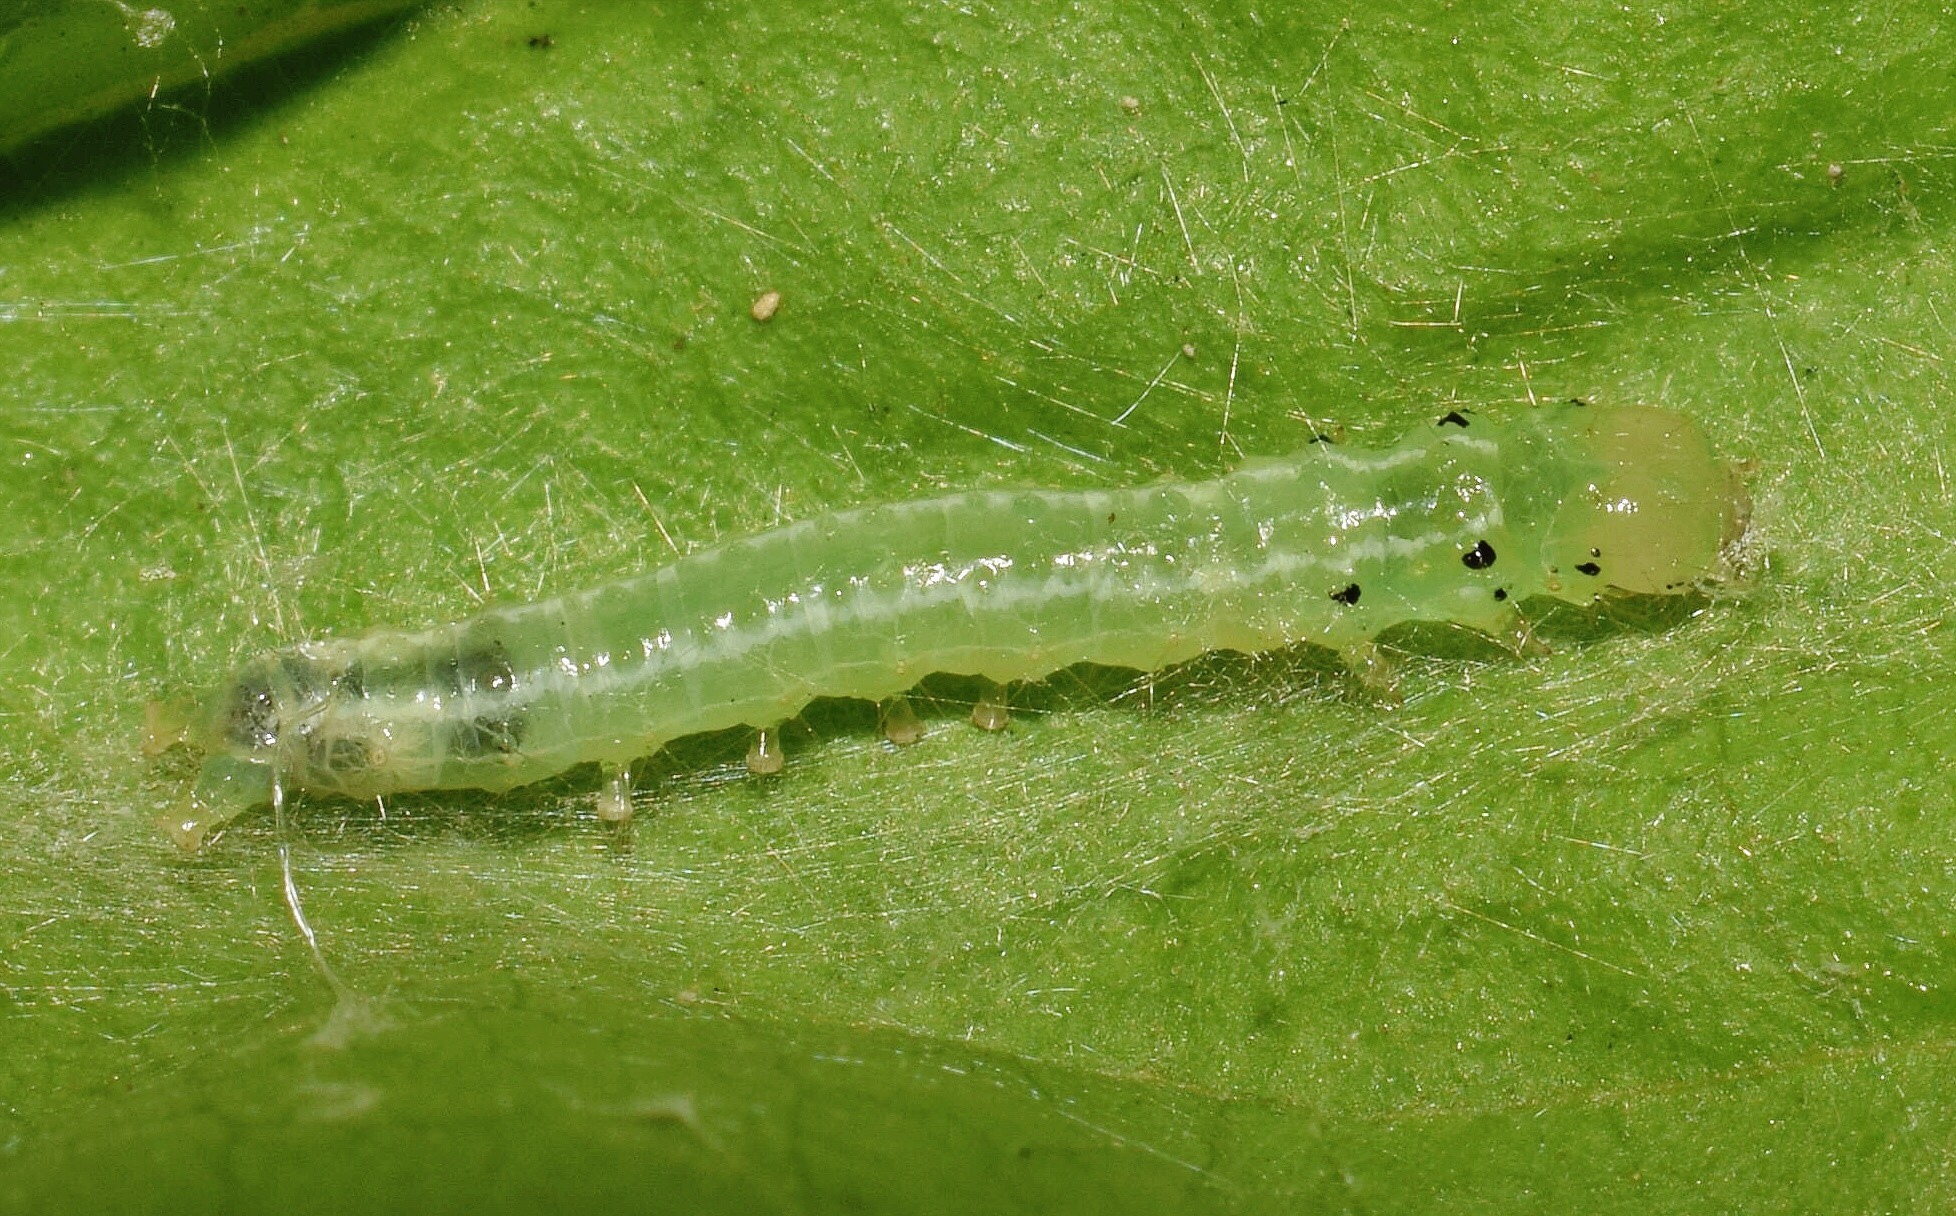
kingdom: Animalia
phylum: Arthropoda
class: Insecta
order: Lepidoptera
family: Crambidae
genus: Antigastra
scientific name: Antigastra morysalis
